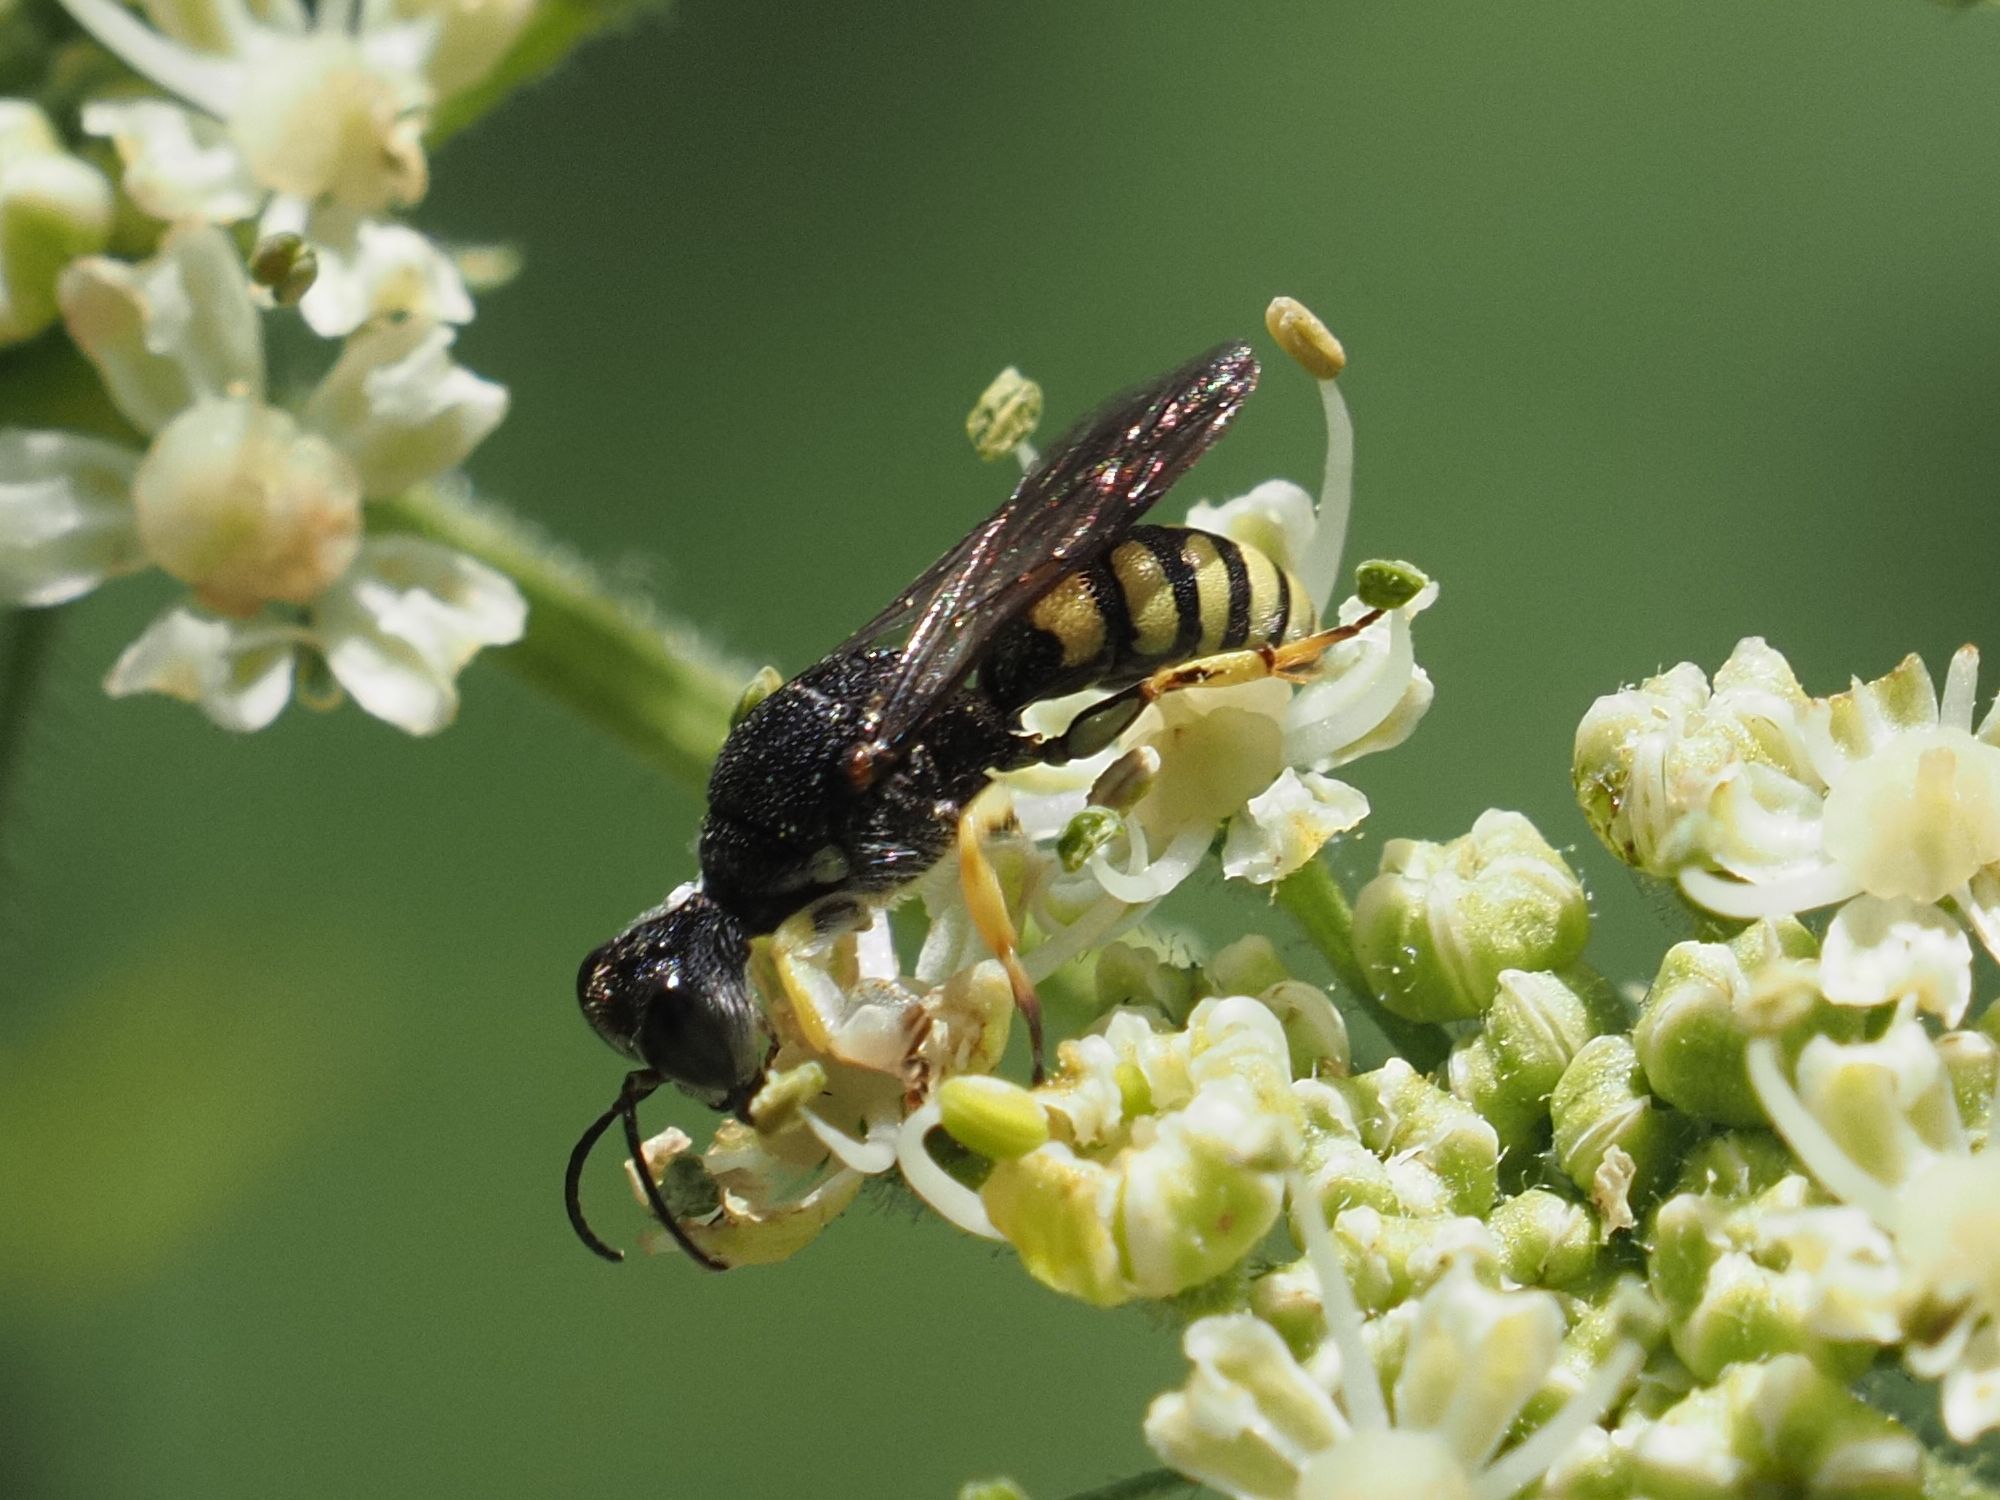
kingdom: Animalia
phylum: Arthropoda
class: Insecta
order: Hymenoptera
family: Crabronidae
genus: Lestica
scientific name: Lestica clypeata
